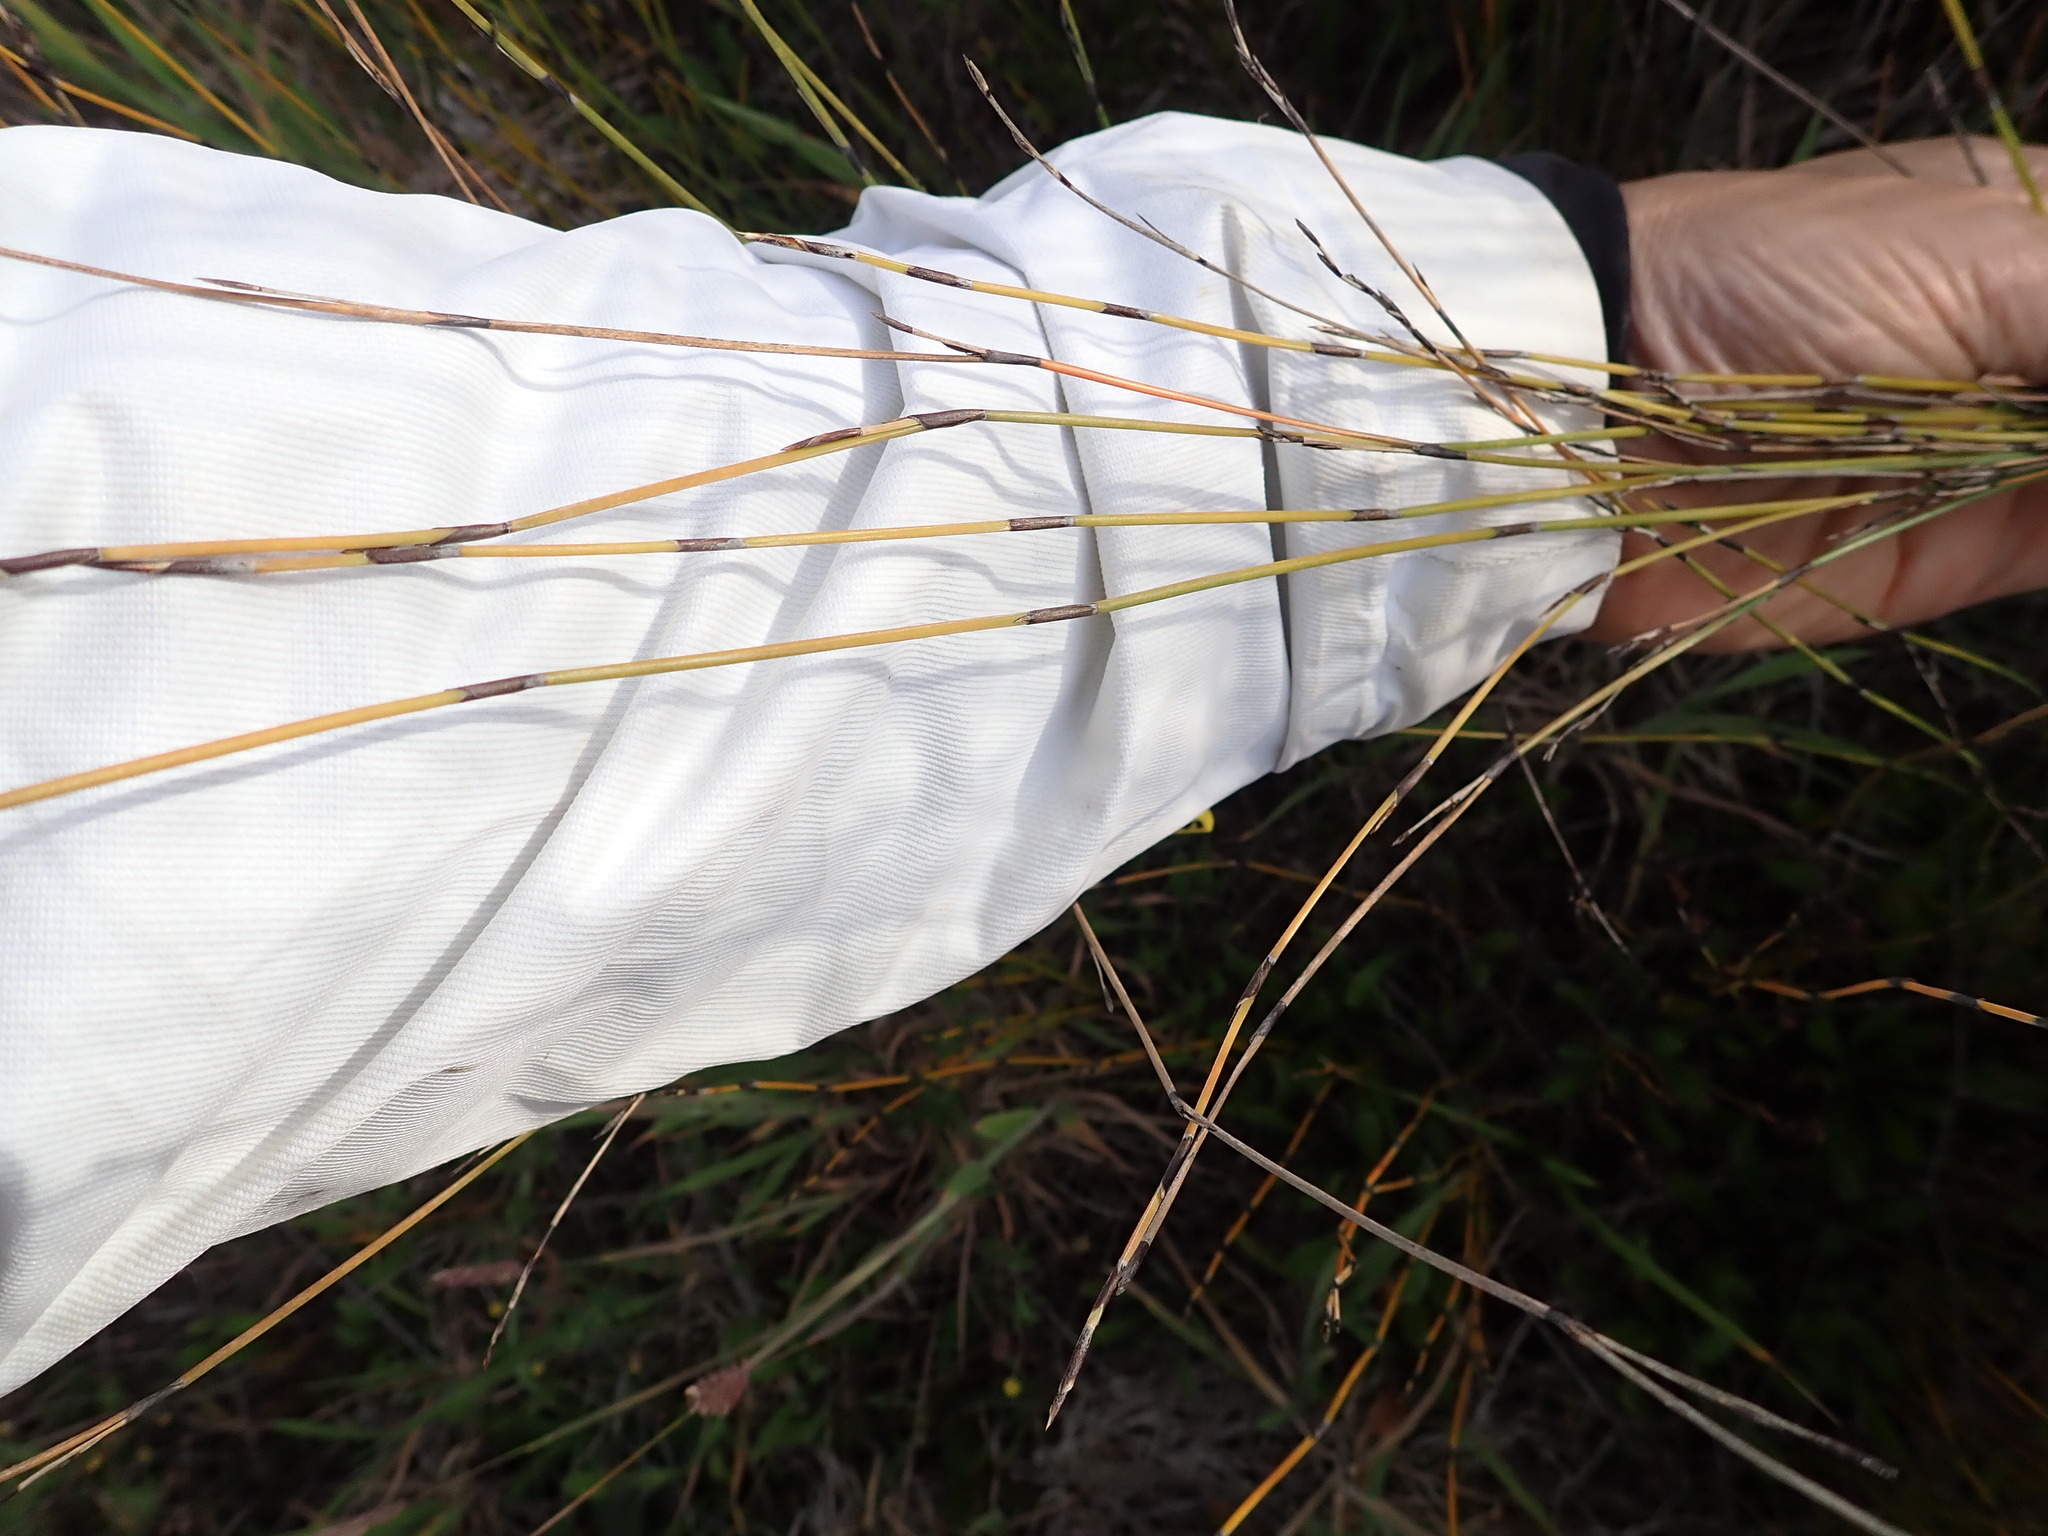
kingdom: Plantae
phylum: Tracheophyta
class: Liliopsida
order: Poales
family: Restionaceae
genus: Apodasmia
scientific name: Apodasmia similis
